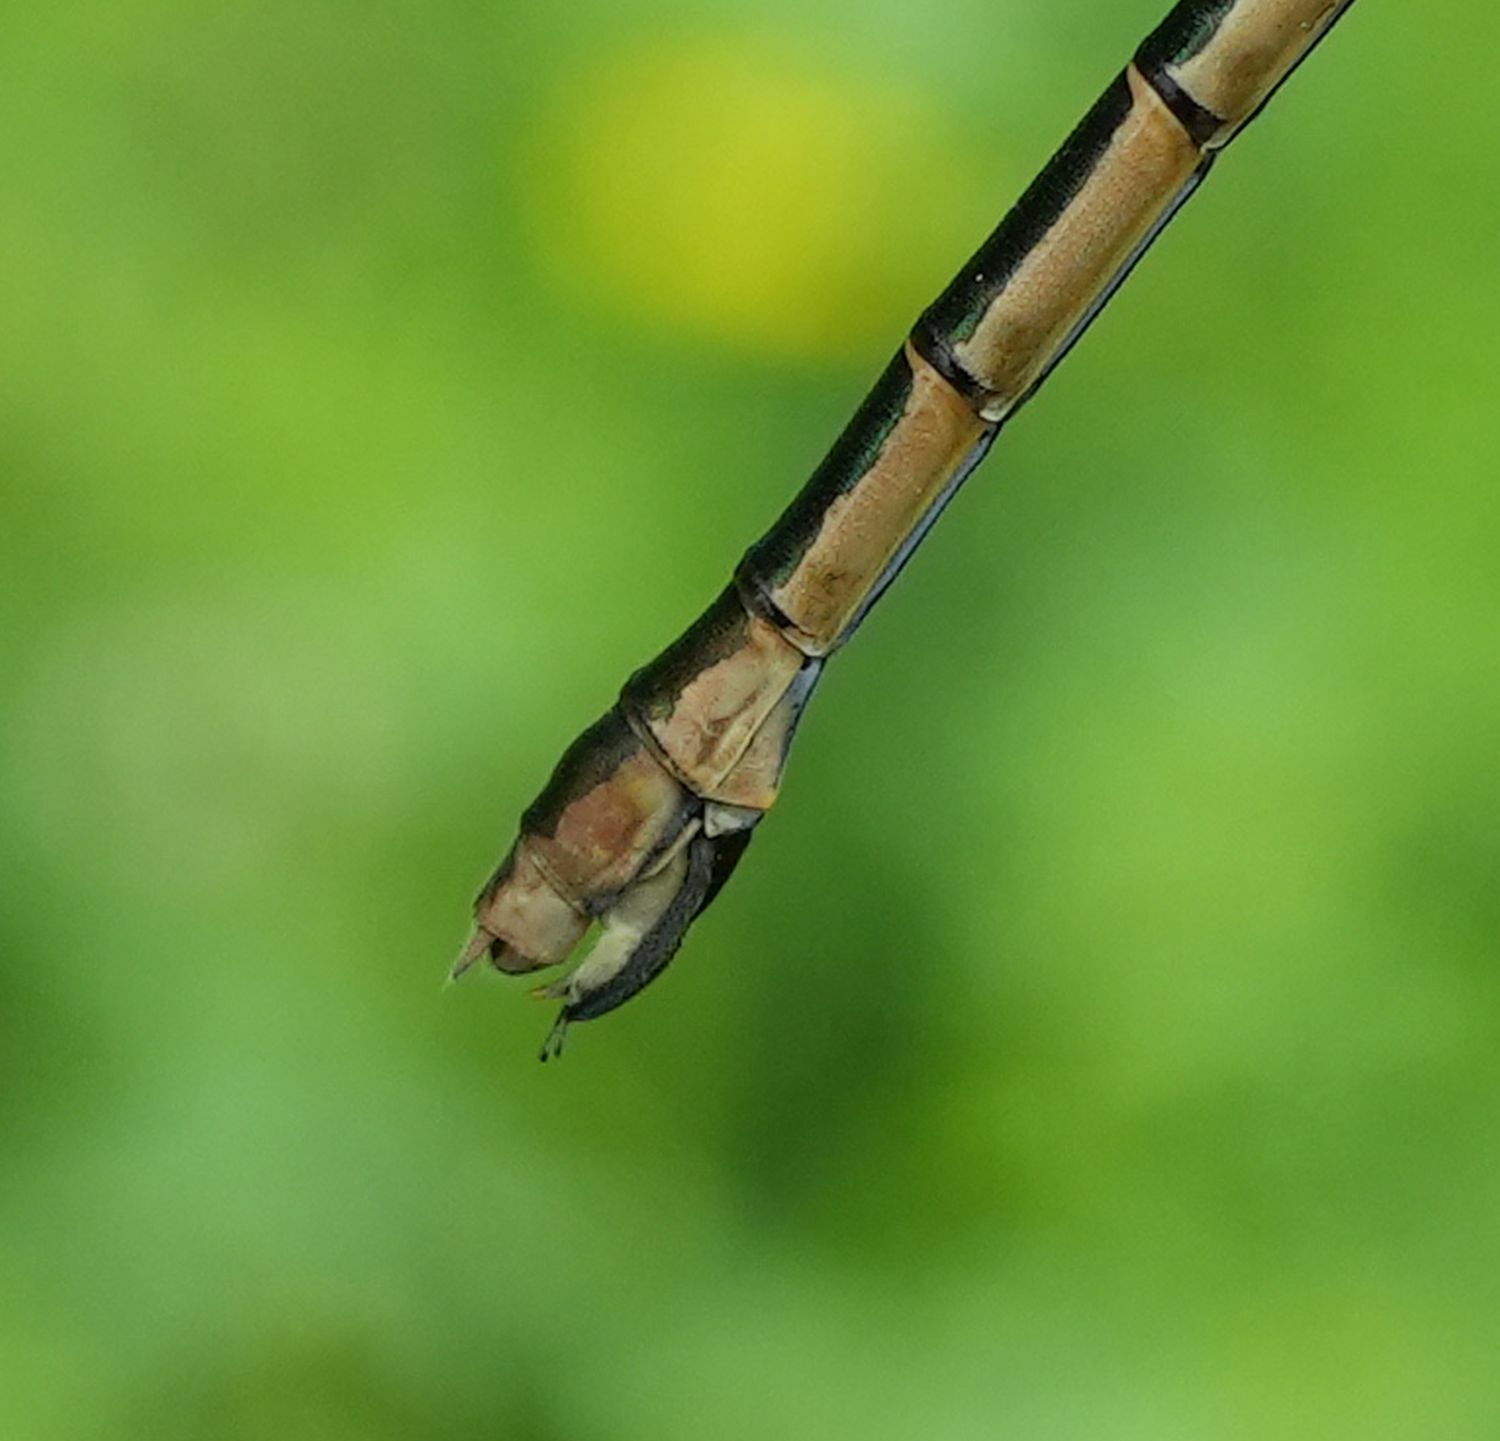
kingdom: Animalia
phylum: Arthropoda
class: Insecta
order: Odonata
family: Lestidae
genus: Lestes
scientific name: Lestes dryas
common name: Scarce emerald damselfly
